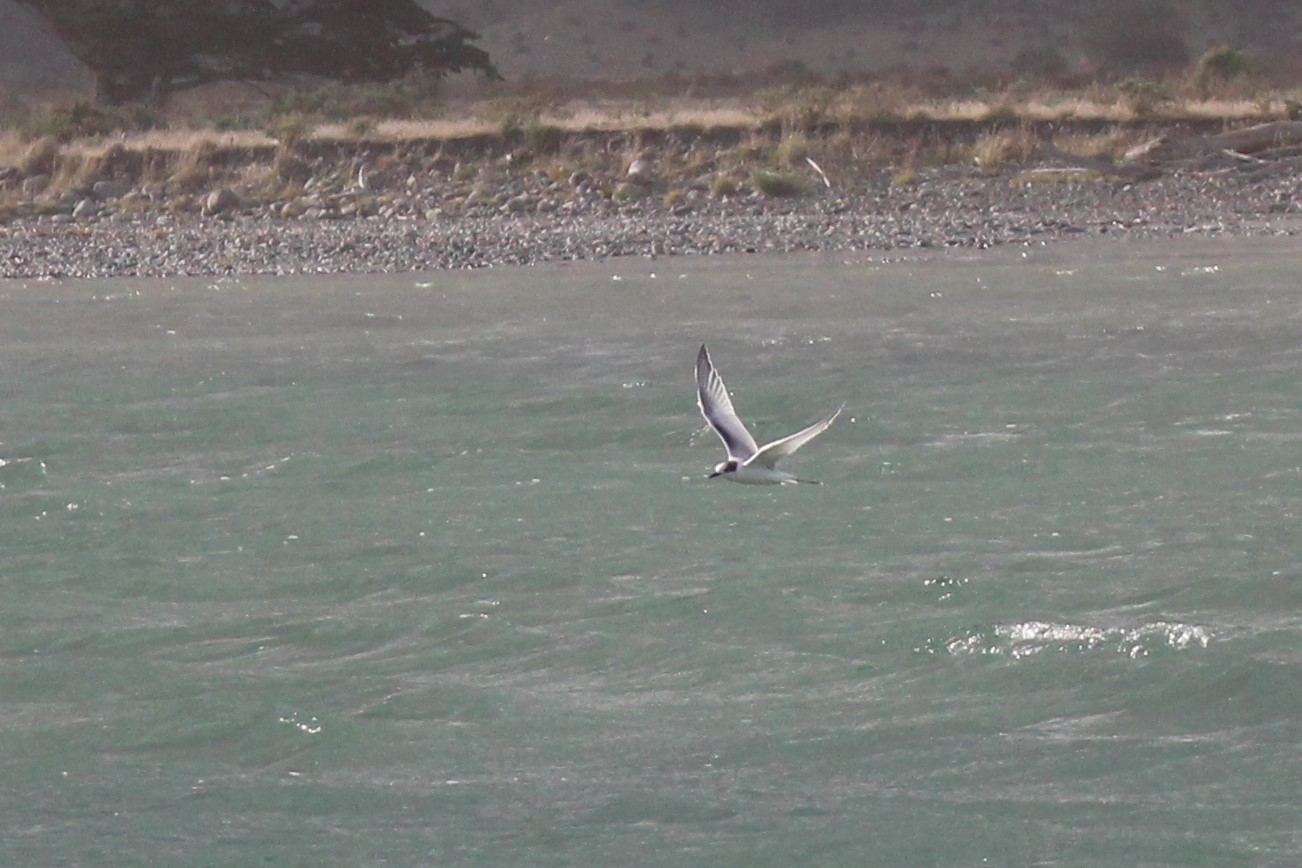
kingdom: Animalia
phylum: Chordata
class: Aves
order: Charadriiformes
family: Laridae
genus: Sterna
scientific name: Sterna striata
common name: White-fronted tern
